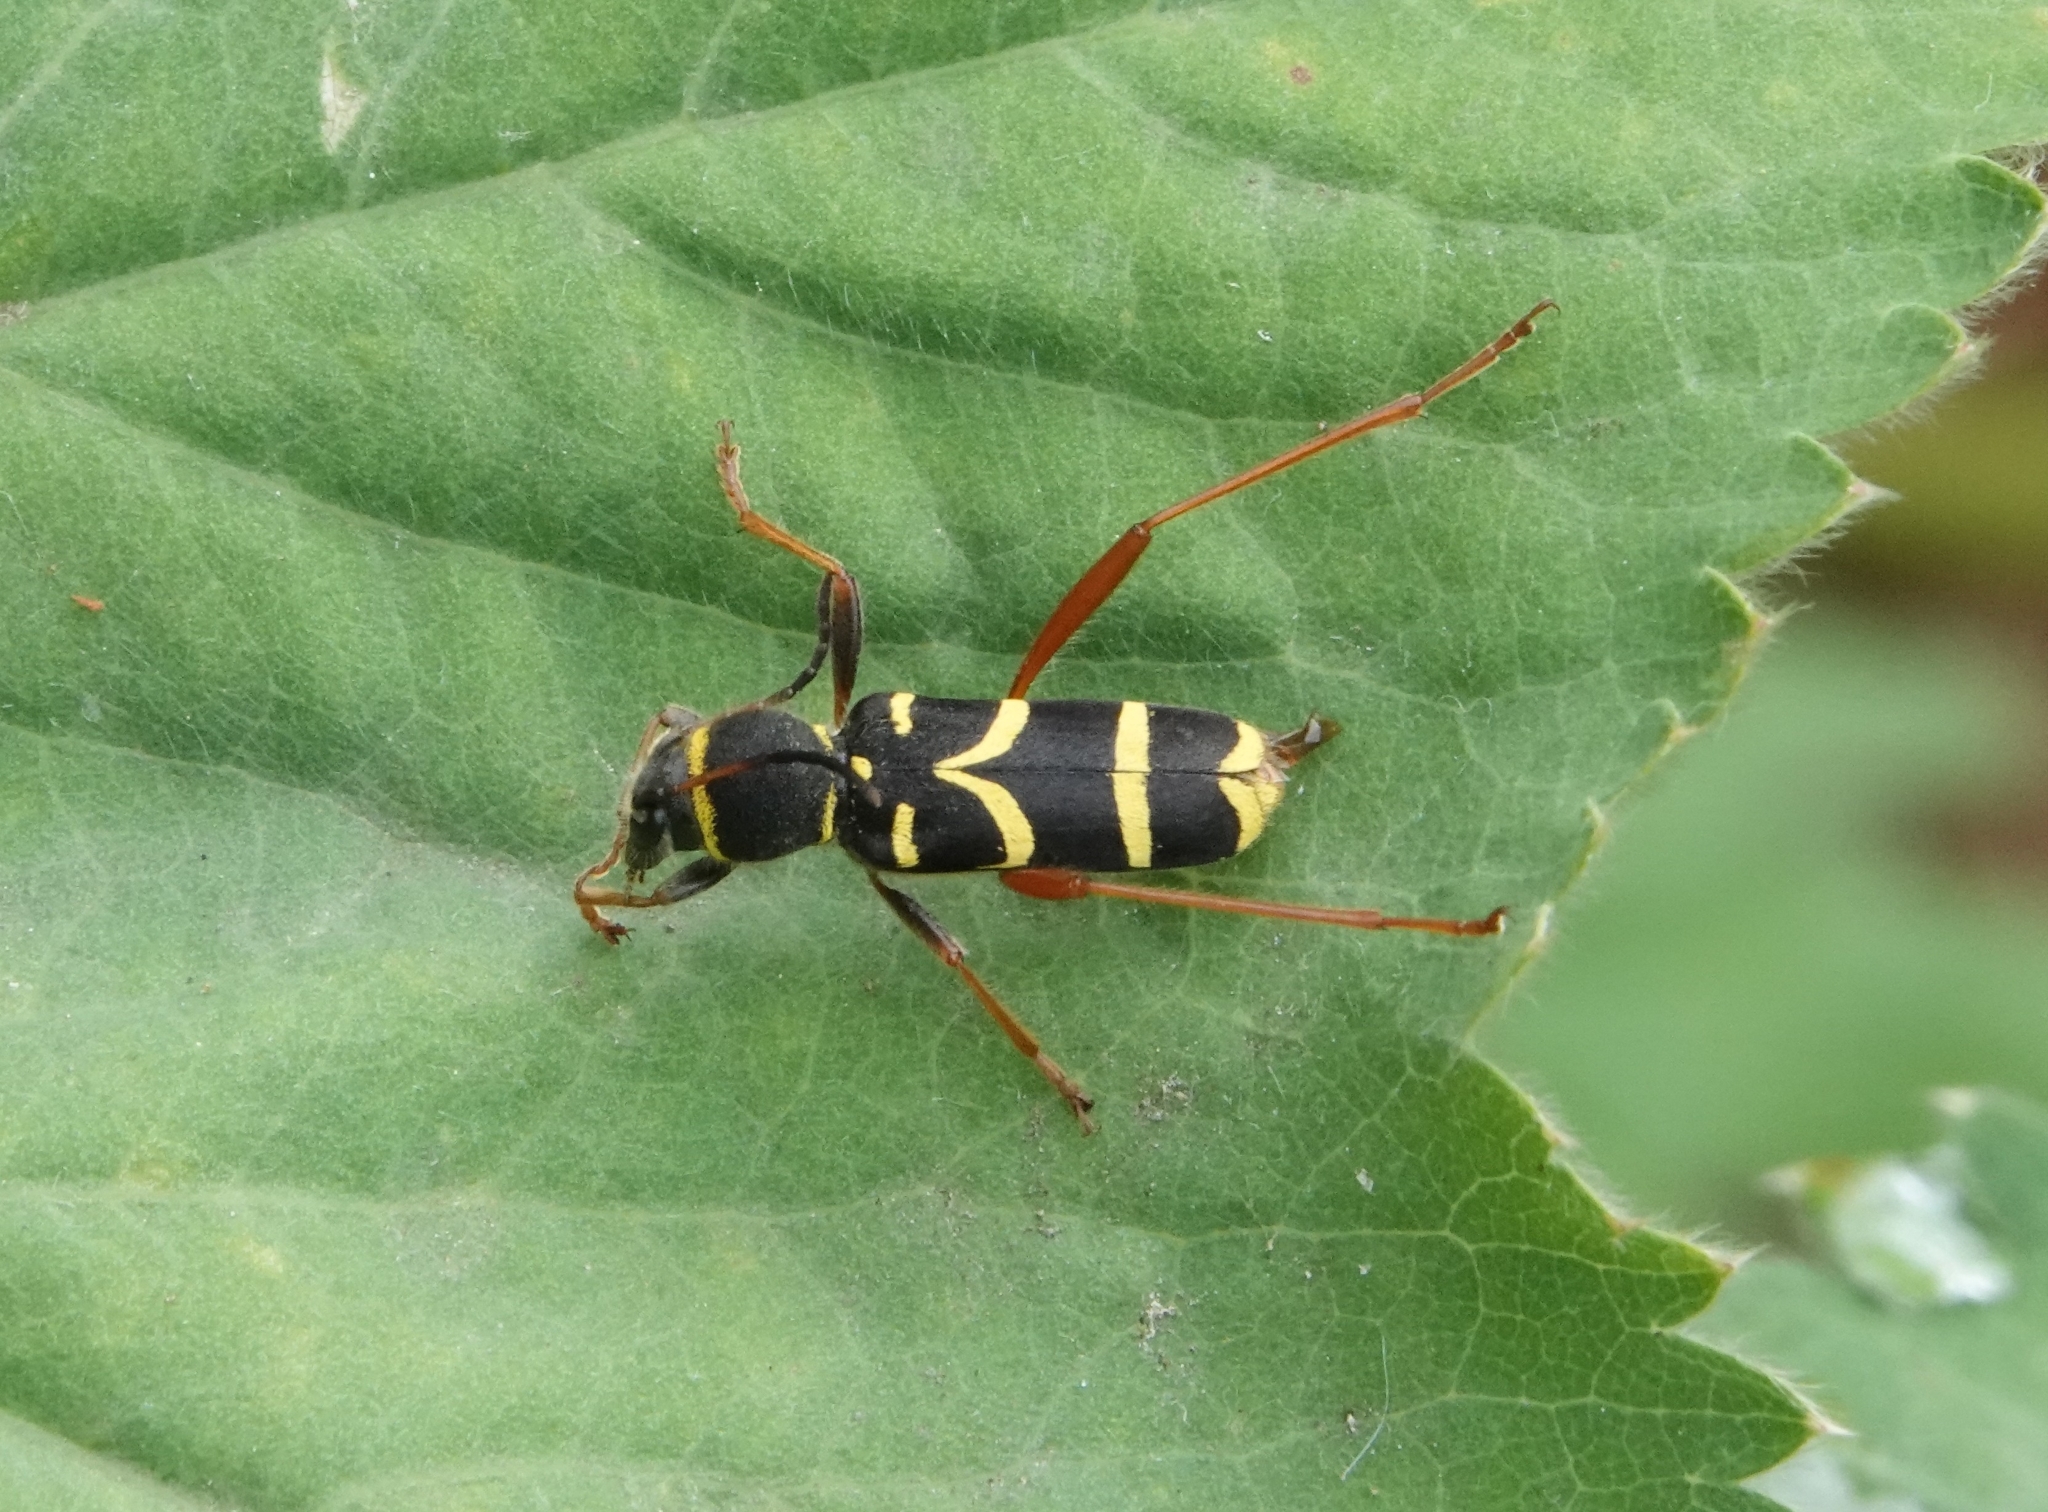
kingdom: Animalia
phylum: Arthropoda
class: Insecta
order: Coleoptera
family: Cerambycidae
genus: Clytus
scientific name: Clytus arietis
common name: Wasp beetle
